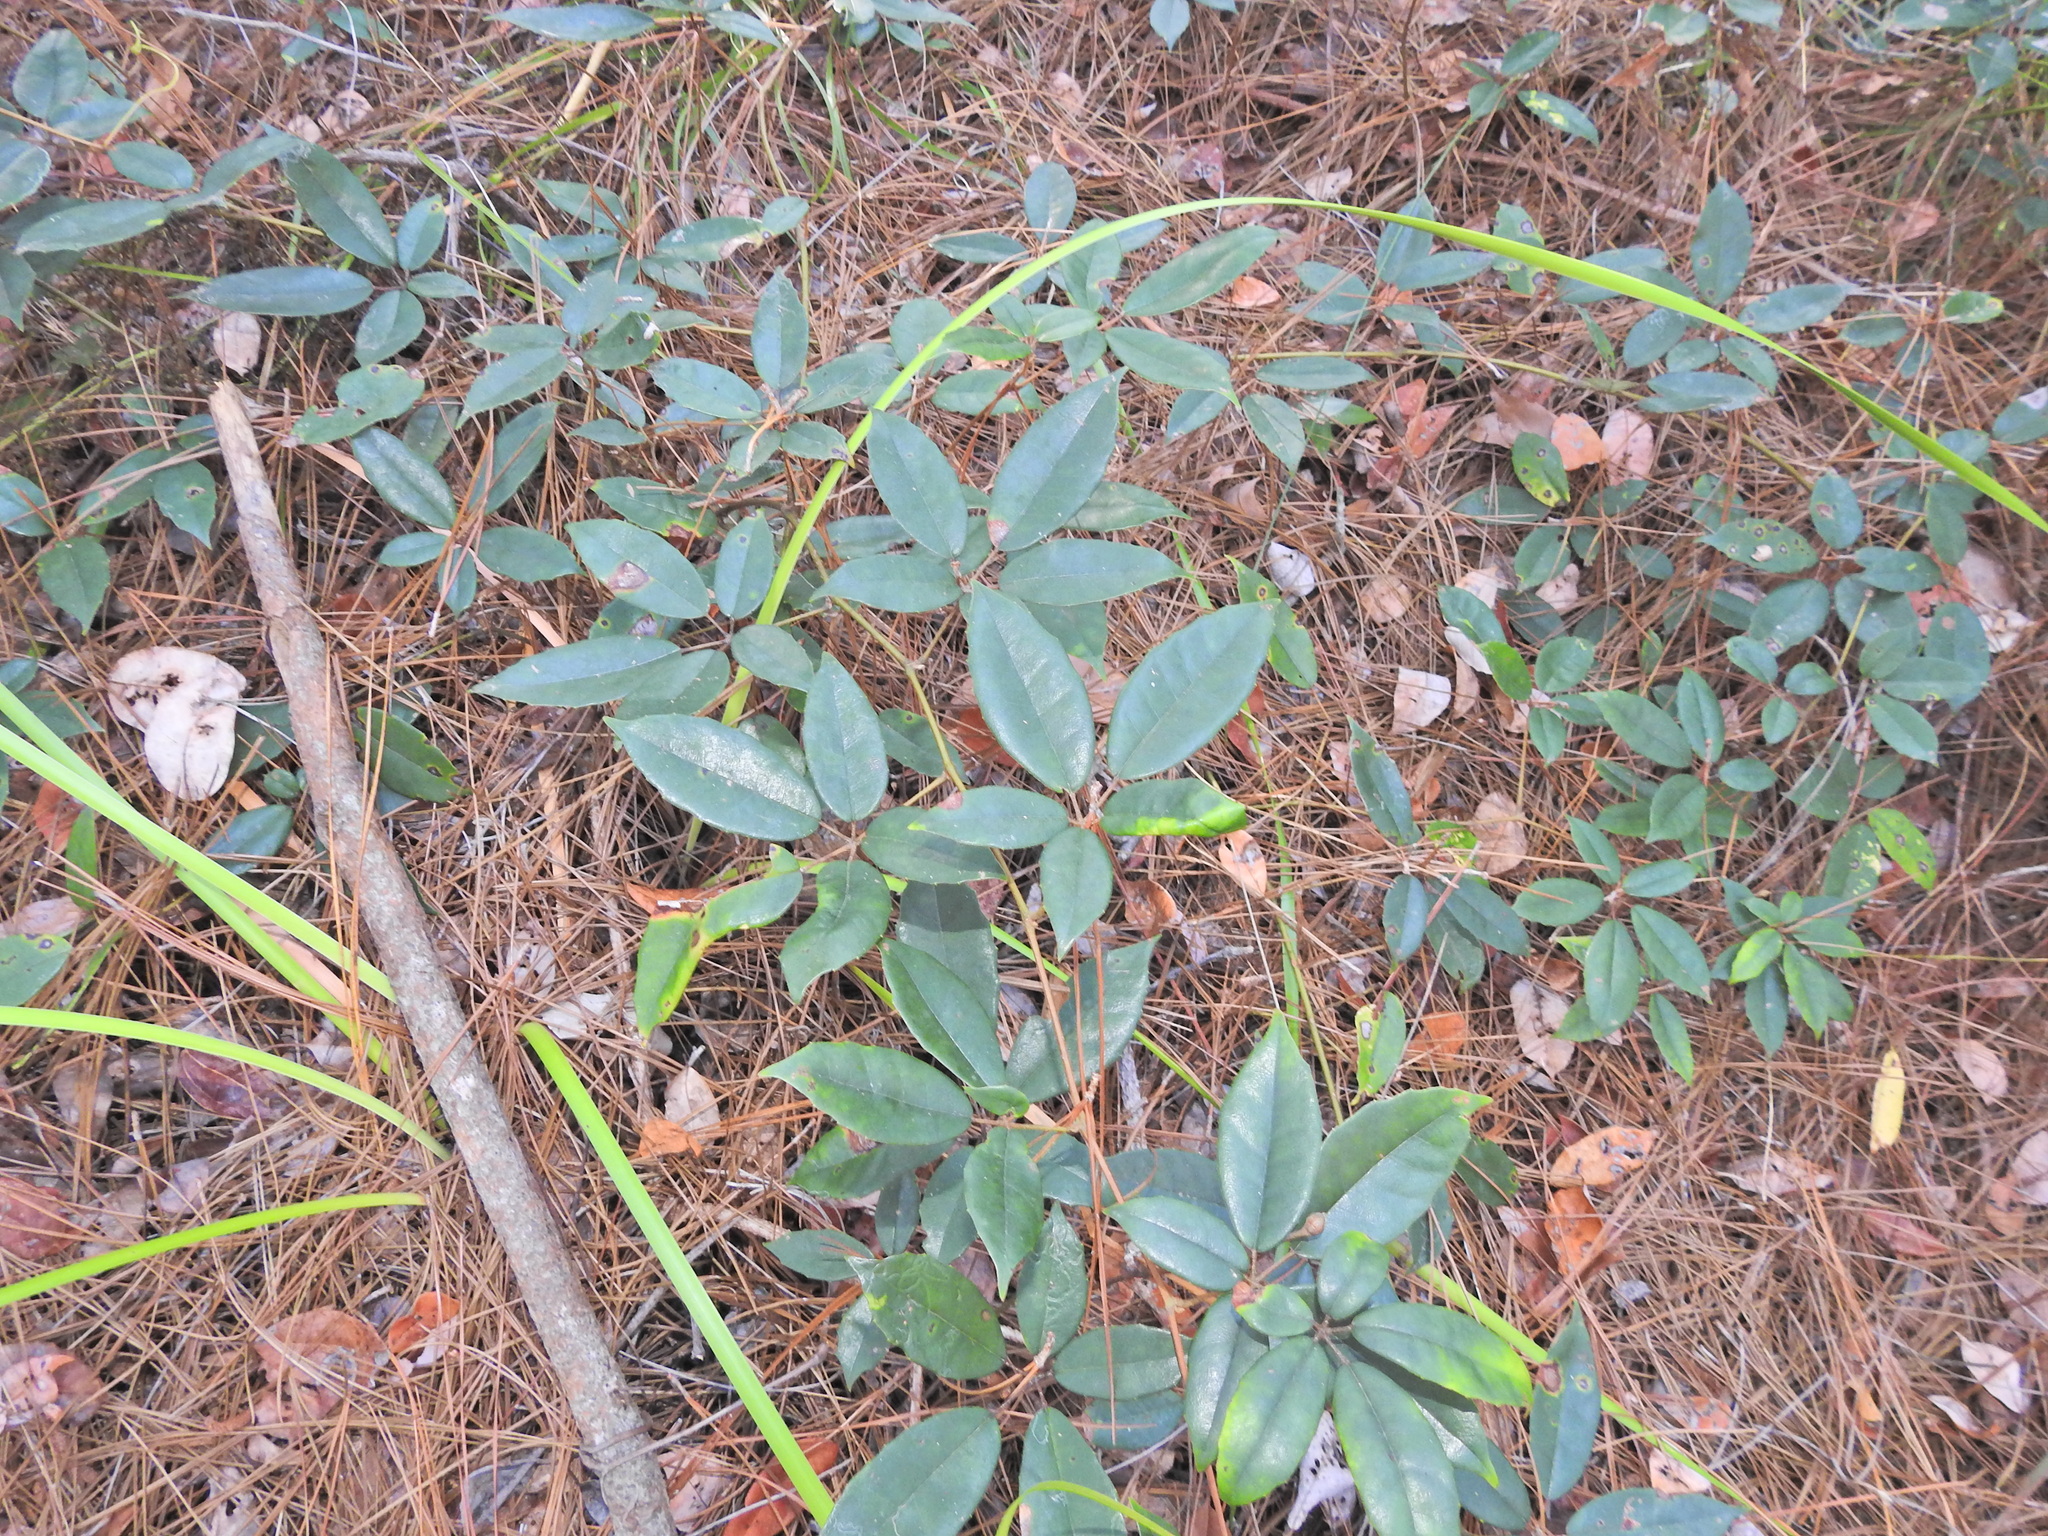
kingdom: Plantae
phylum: Tracheophyta
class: Magnoliopsida
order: Vitales
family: Vitaceae
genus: Nothocissus
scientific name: Nothocissus hypoglauca
